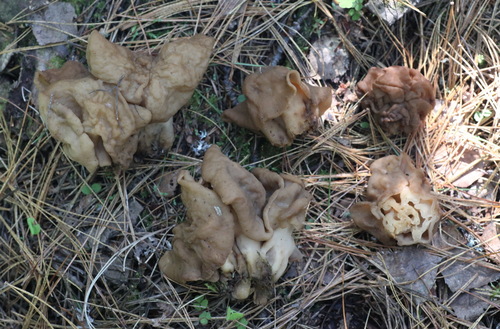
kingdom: Fungi
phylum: Ascomycota
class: Pezizomycetes
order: Pezizales
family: Discinaceae
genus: Gyromitra
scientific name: Gyromitra gigas
